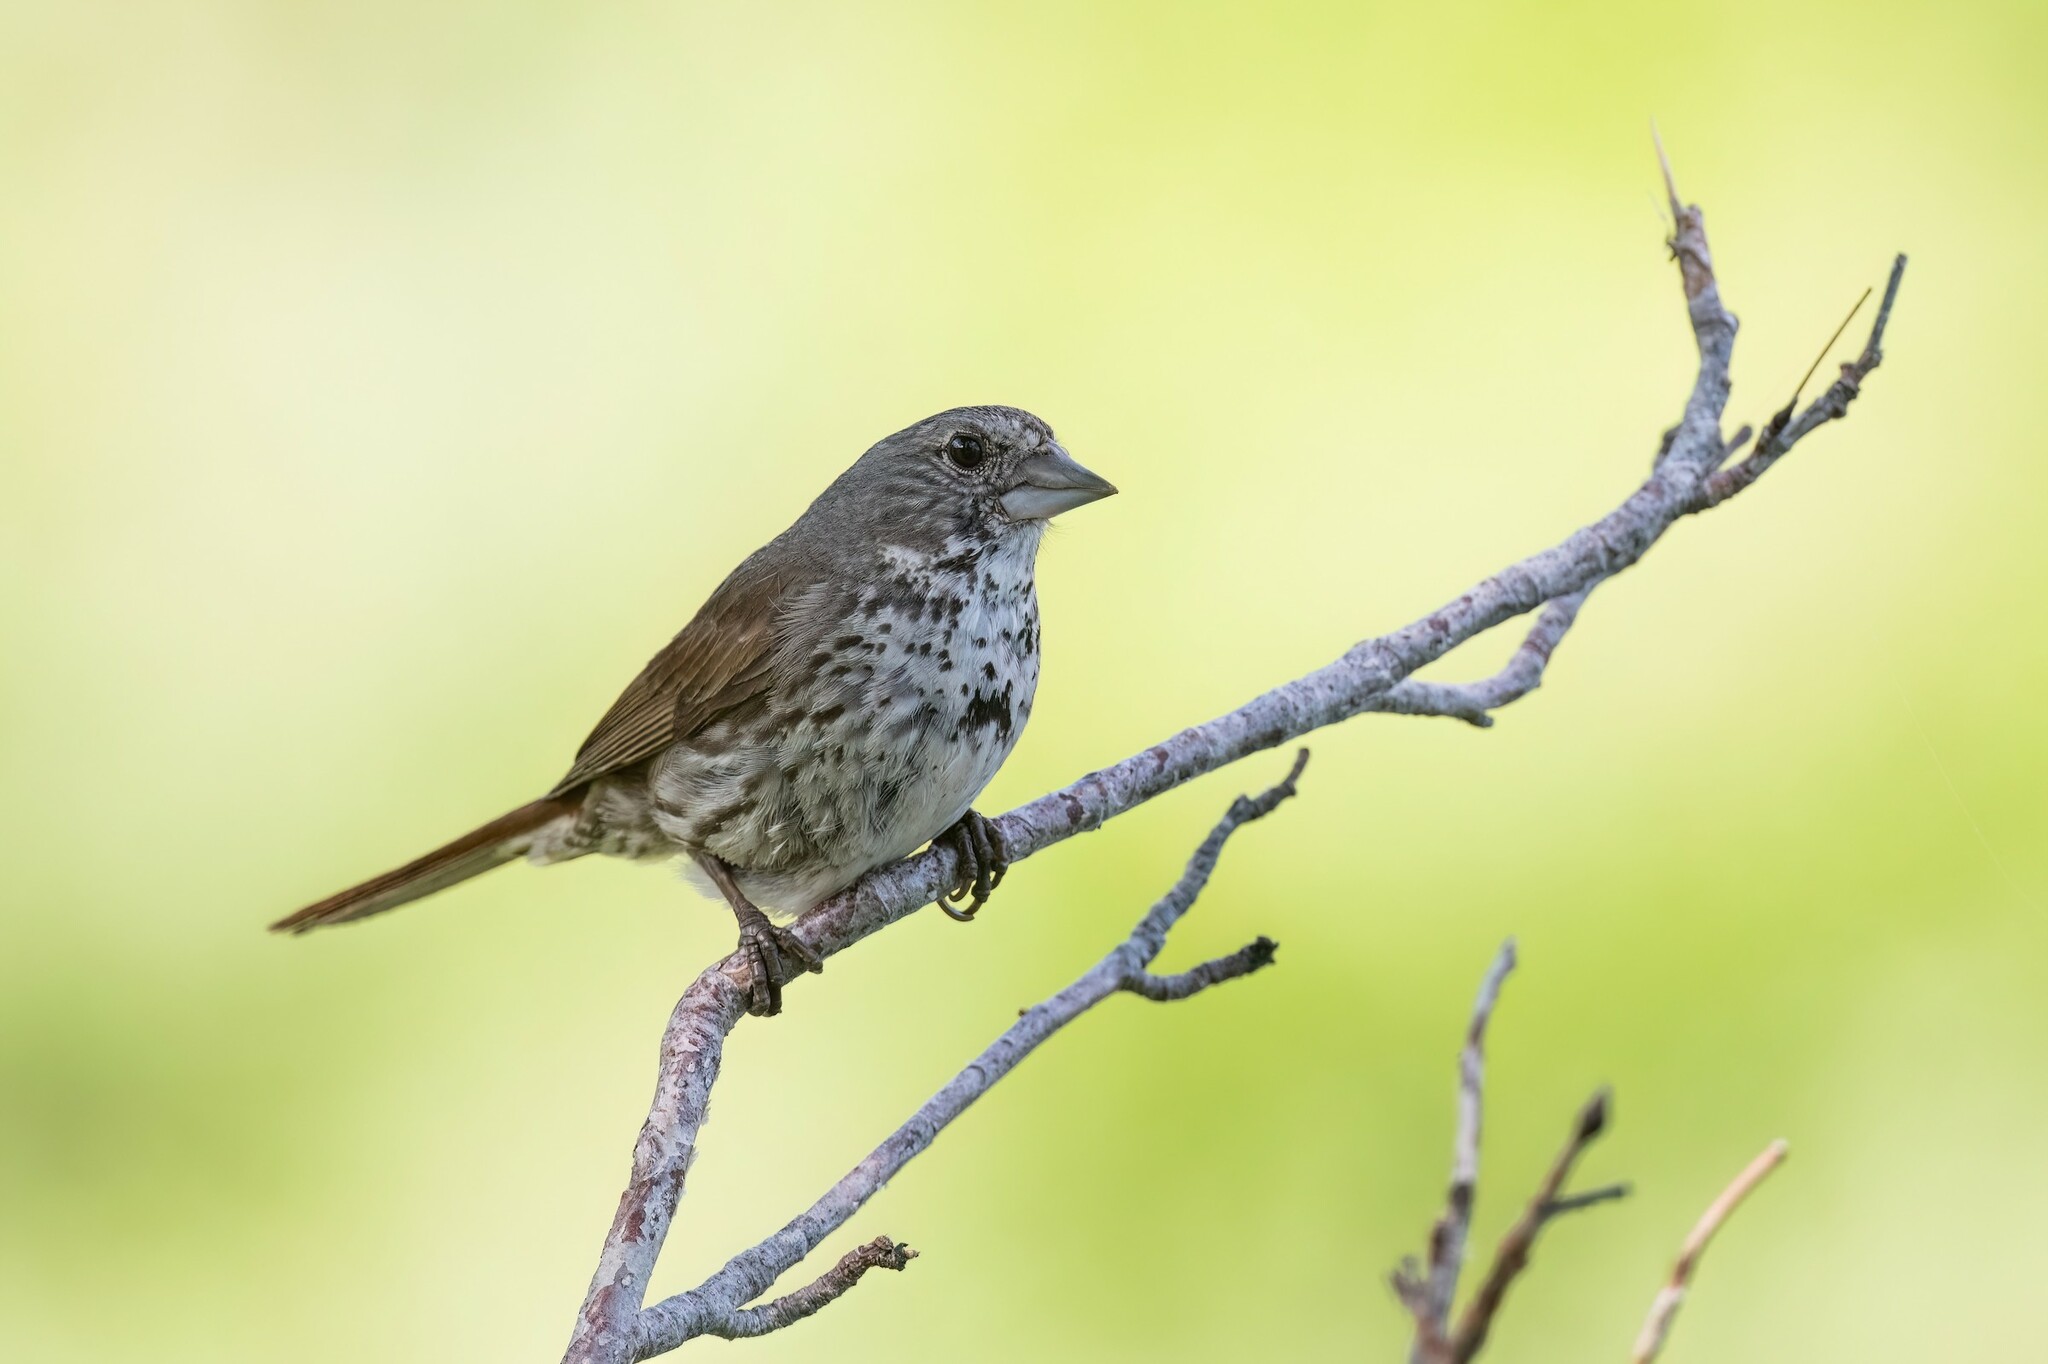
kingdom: Animalia
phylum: Chordata
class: Aves
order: Passeriformes
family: Passerellidae
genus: Passerella
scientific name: Passerella iliaca
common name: Fox sparrow
